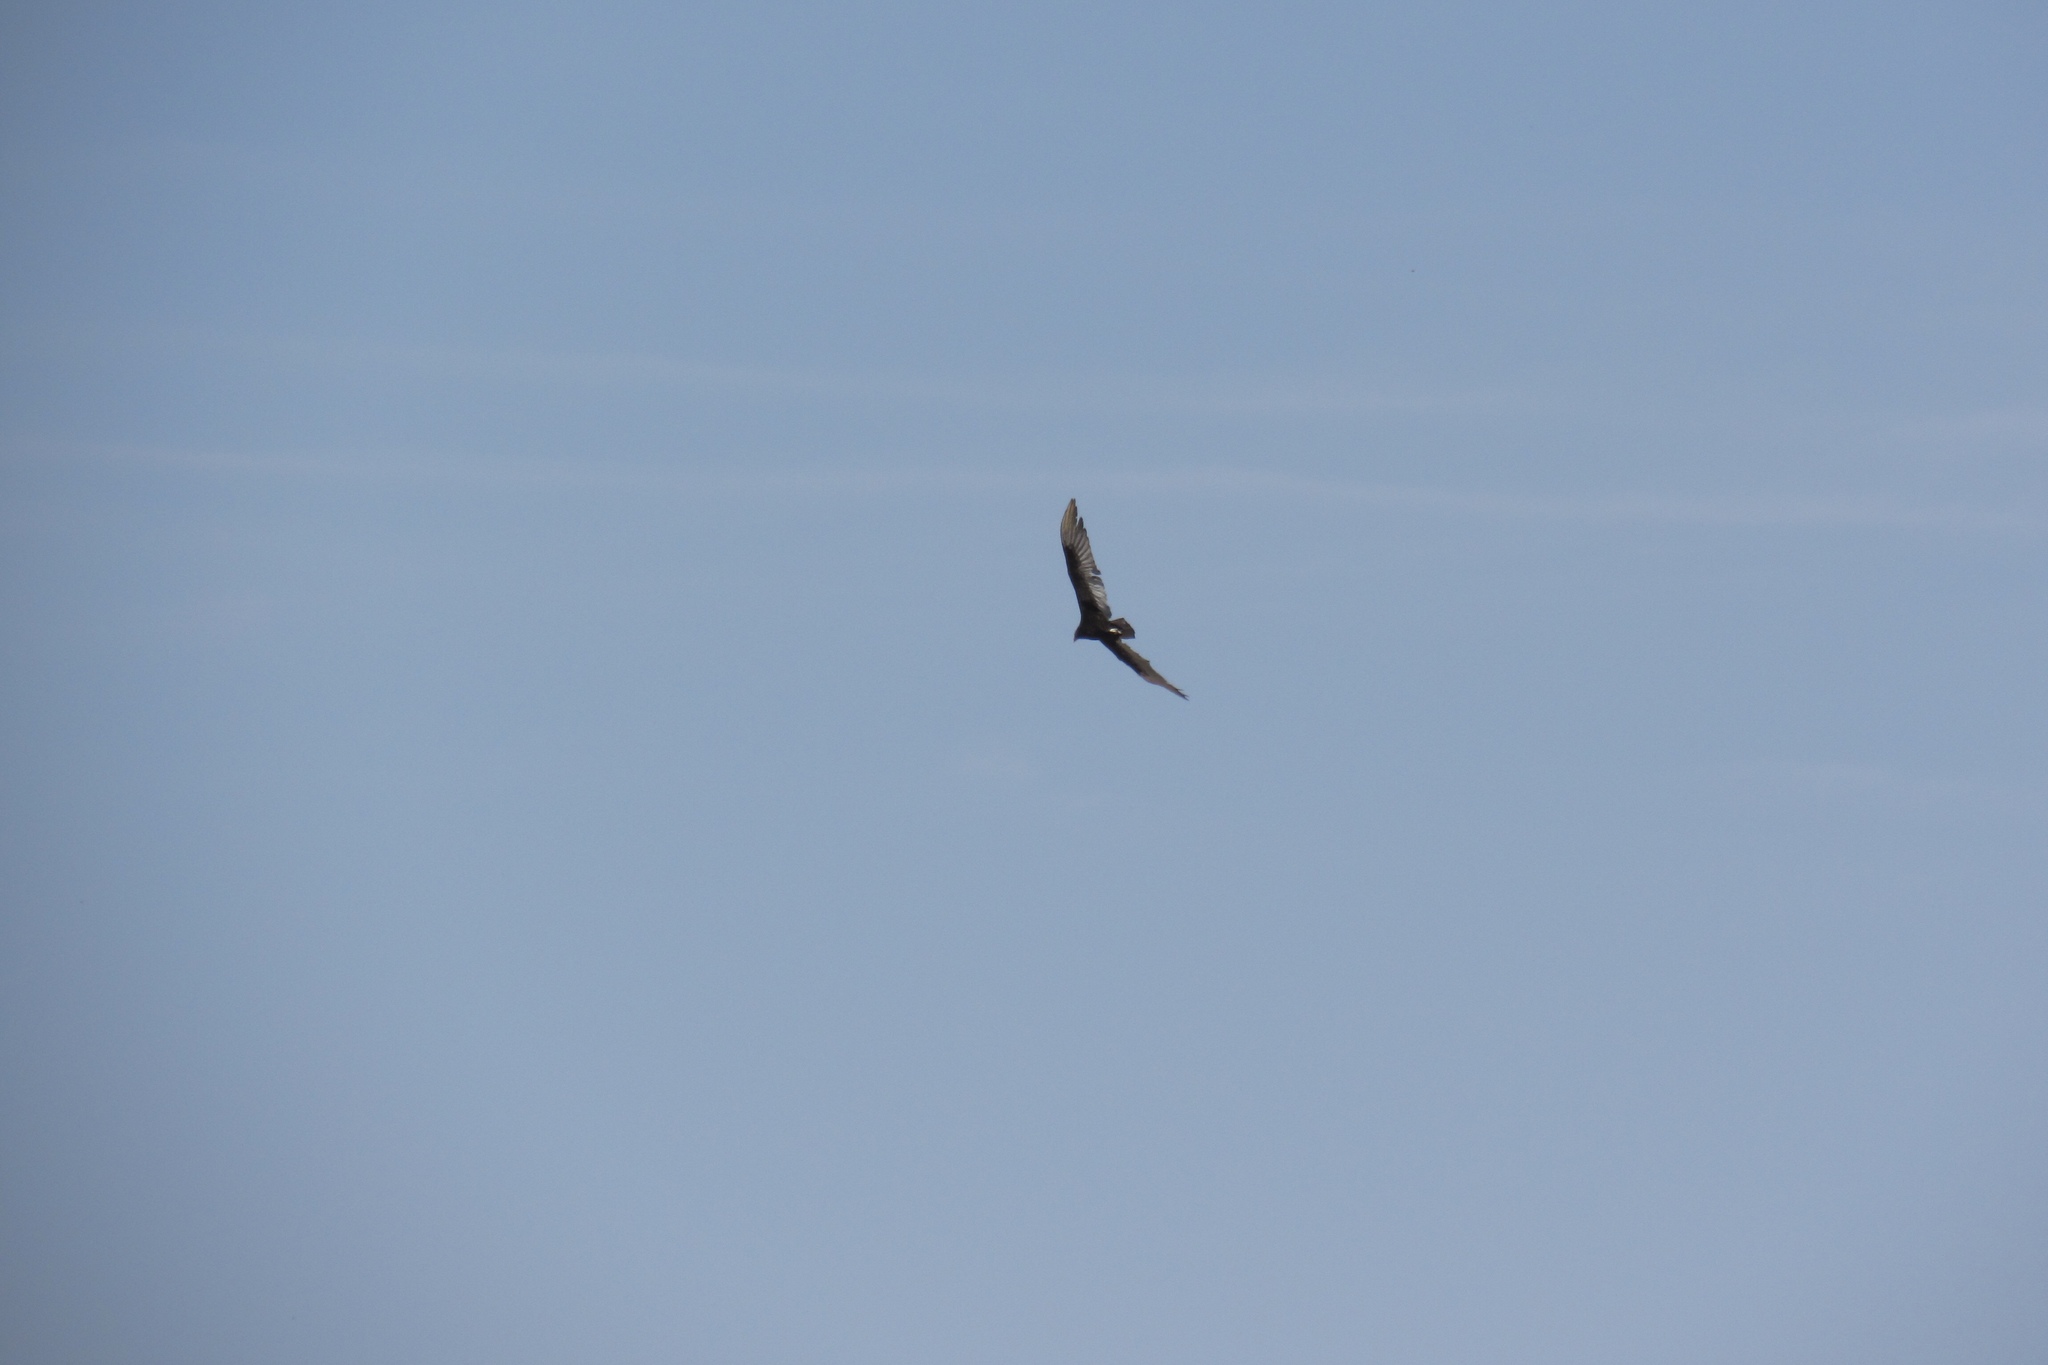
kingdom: Animalia
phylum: Chordata
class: Aves
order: Accipitriformes
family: Cathartidae
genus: Cathartes
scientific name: Cathartes aura
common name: Turkey vulture
